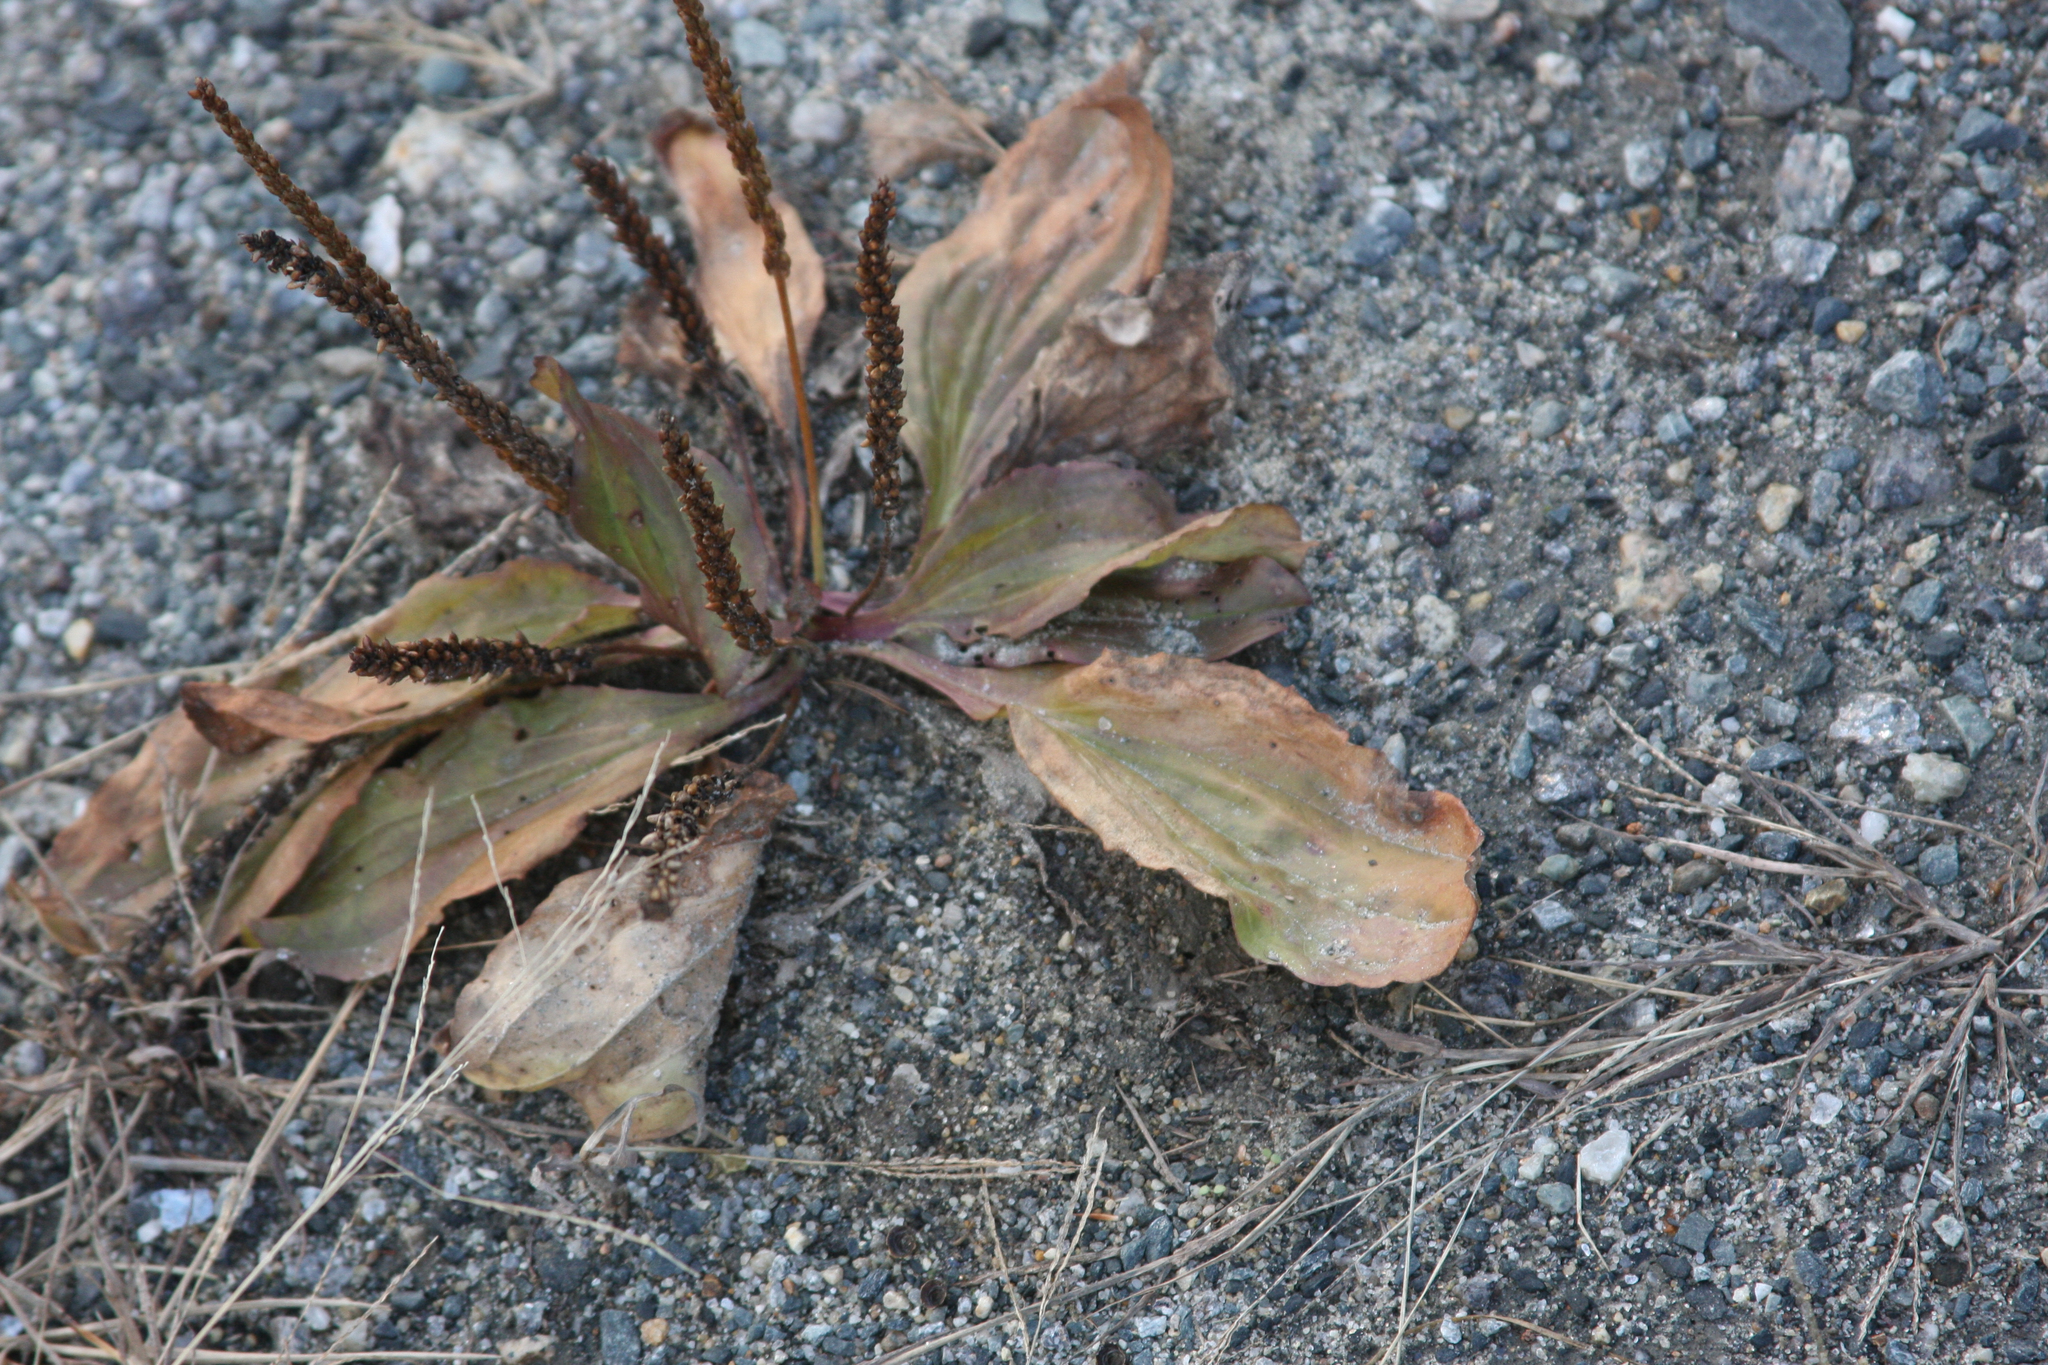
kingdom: Plantae
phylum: Tracheophyta
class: Magnoliopsida
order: Lamiales
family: Plantaginaceae
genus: Plantago
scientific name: Plantago rugelii
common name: American plantain
